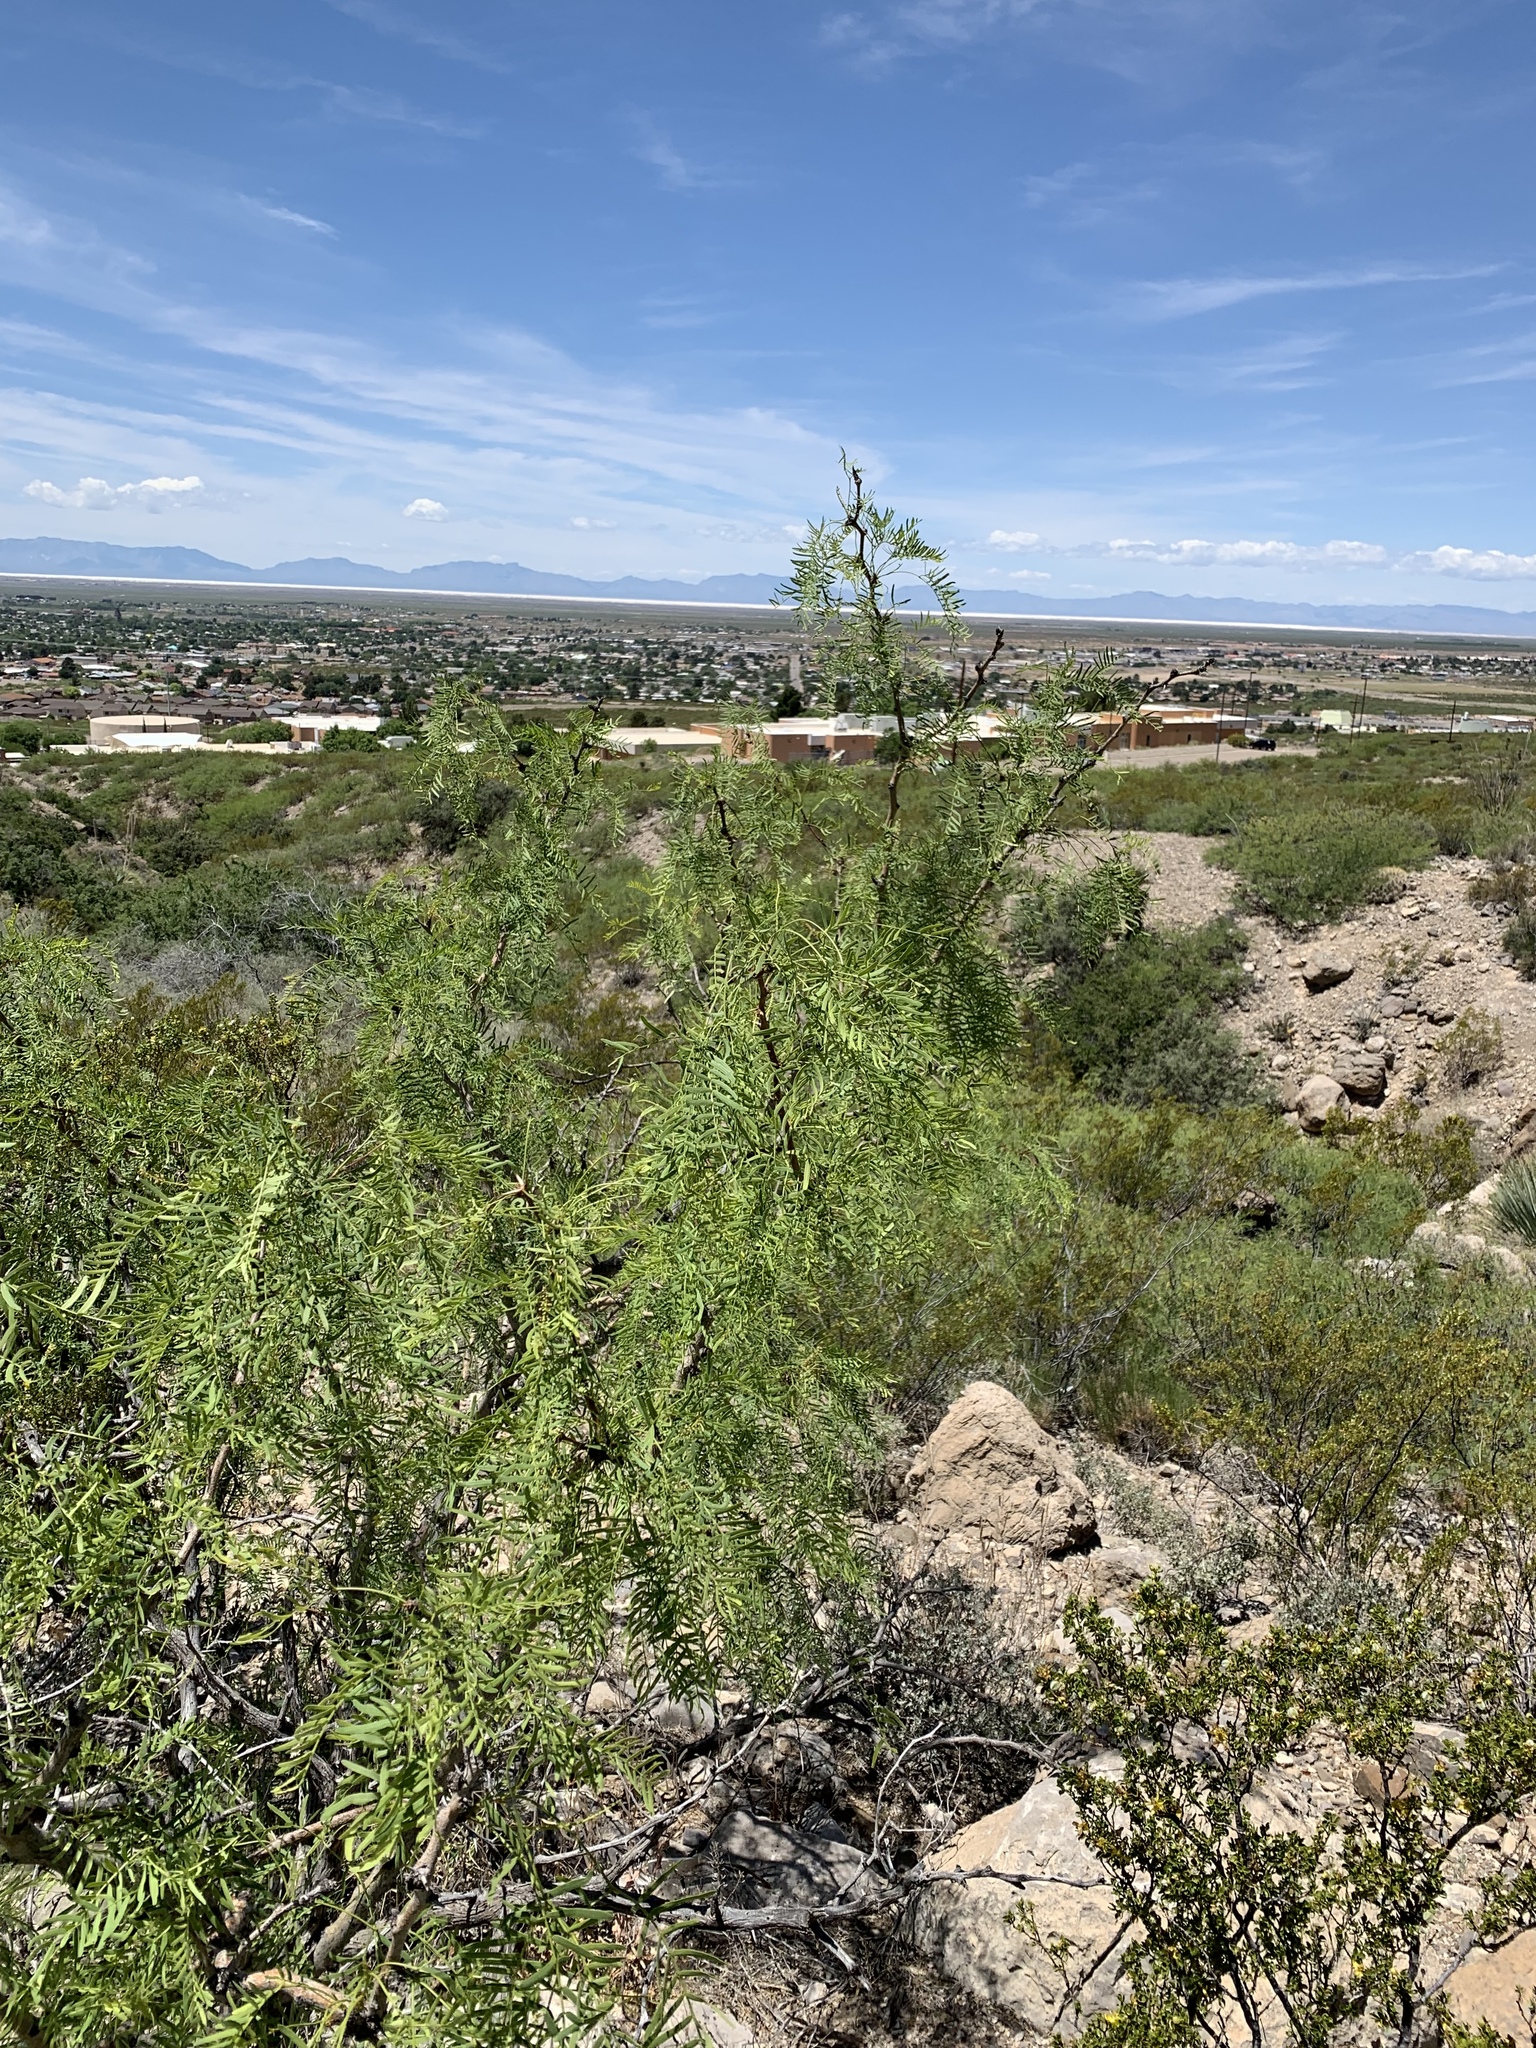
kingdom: Plantae
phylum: Tracheophyta
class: Magnoliopsida
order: Fabales
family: Fabaceae
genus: Prosopis
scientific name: Prosopis glandulosa
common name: Honey mesquite
